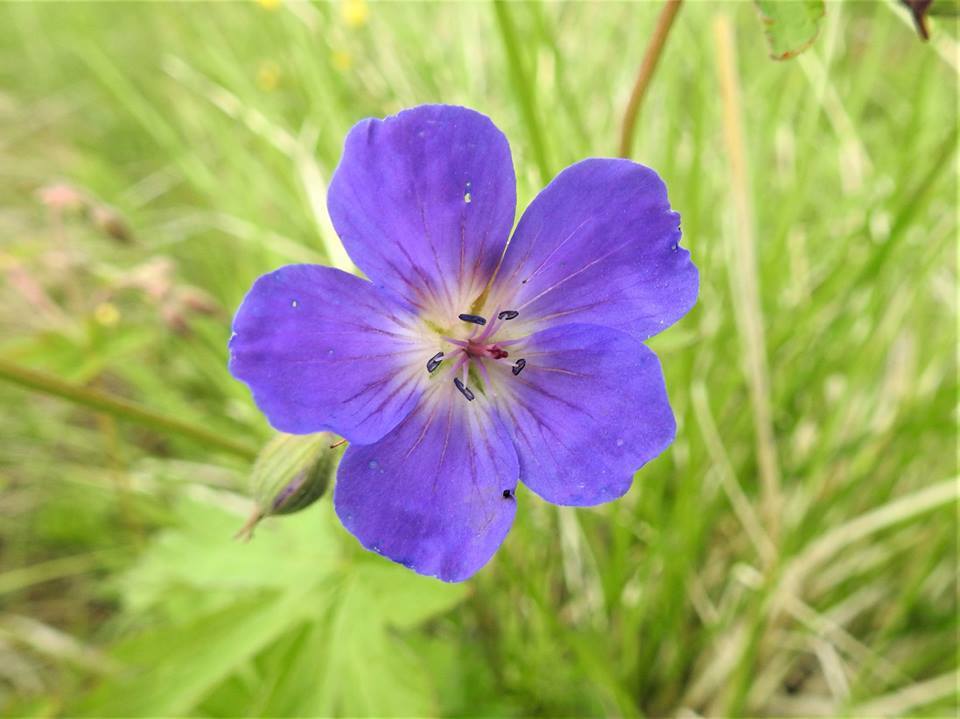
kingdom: Plantae
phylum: Tracheophyta
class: Magnoliopsida
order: Geraniales
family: Geraniaceae
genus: Geranium
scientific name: Geranium sylvaticum
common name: Wood crane's-bill
